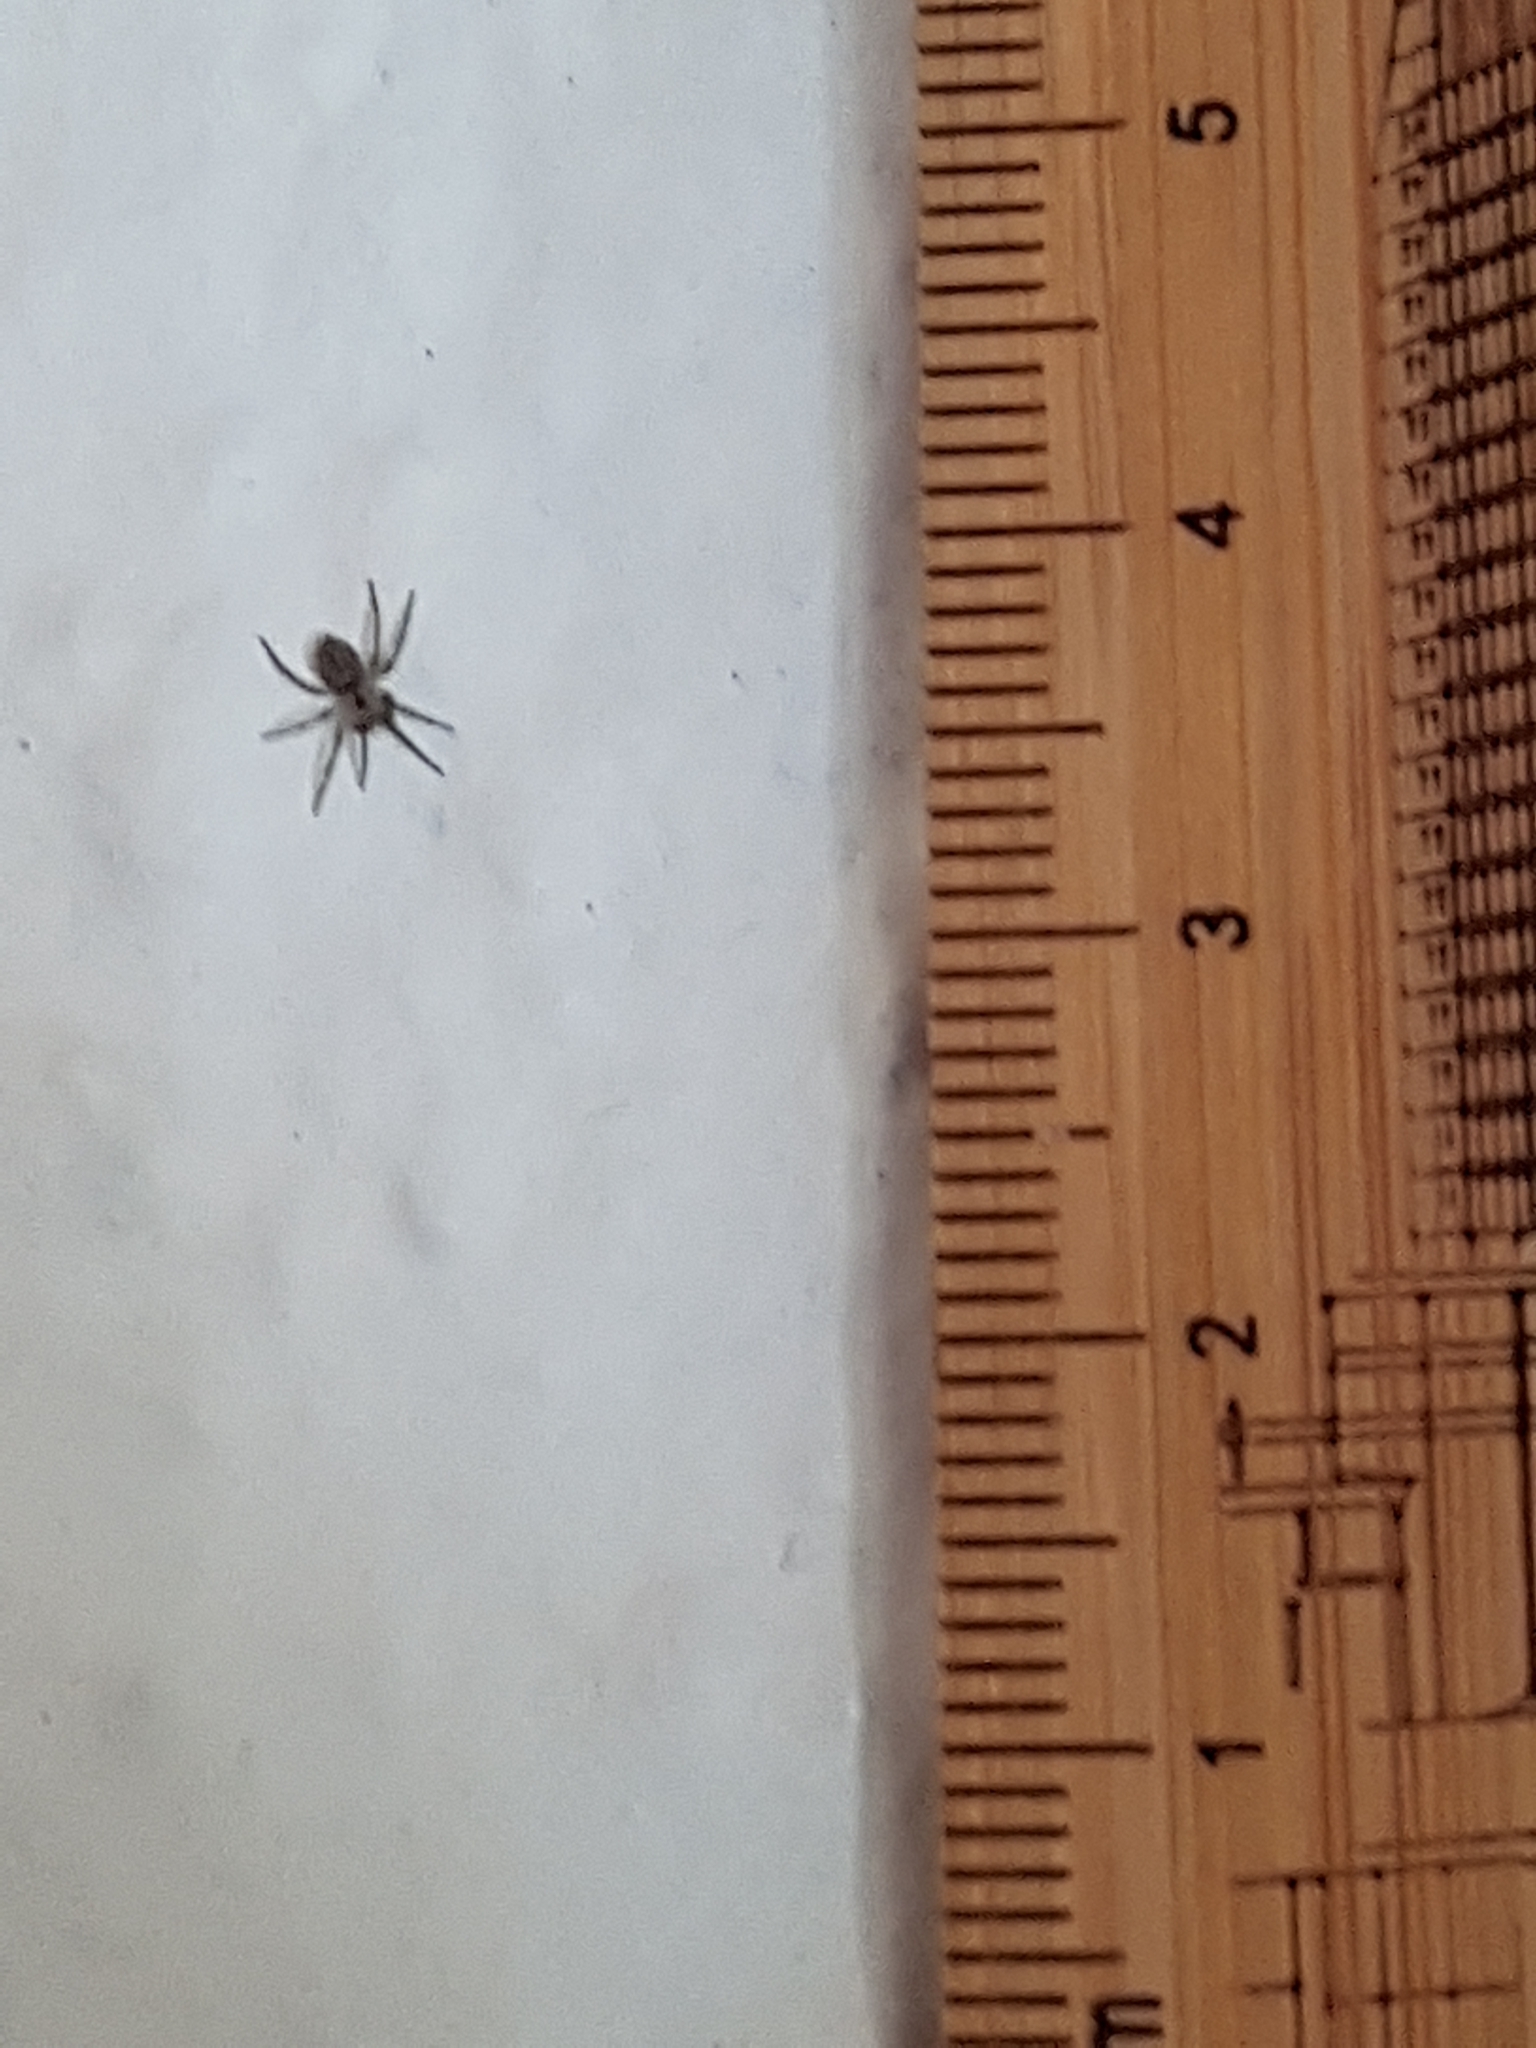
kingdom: Animalia
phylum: Arthropoda
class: Arachnida
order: Araneae
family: Oecobiidae
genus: Oecobius
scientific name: Oecobius navus
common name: Flatmesh weaver
